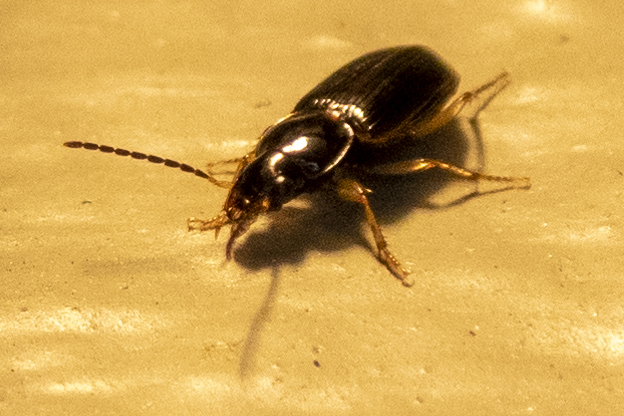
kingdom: Animalia
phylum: Arthropoda
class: Insecta
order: Coleoptera
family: Carabidae
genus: Stenolophus
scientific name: Stenolophus ochropezus
